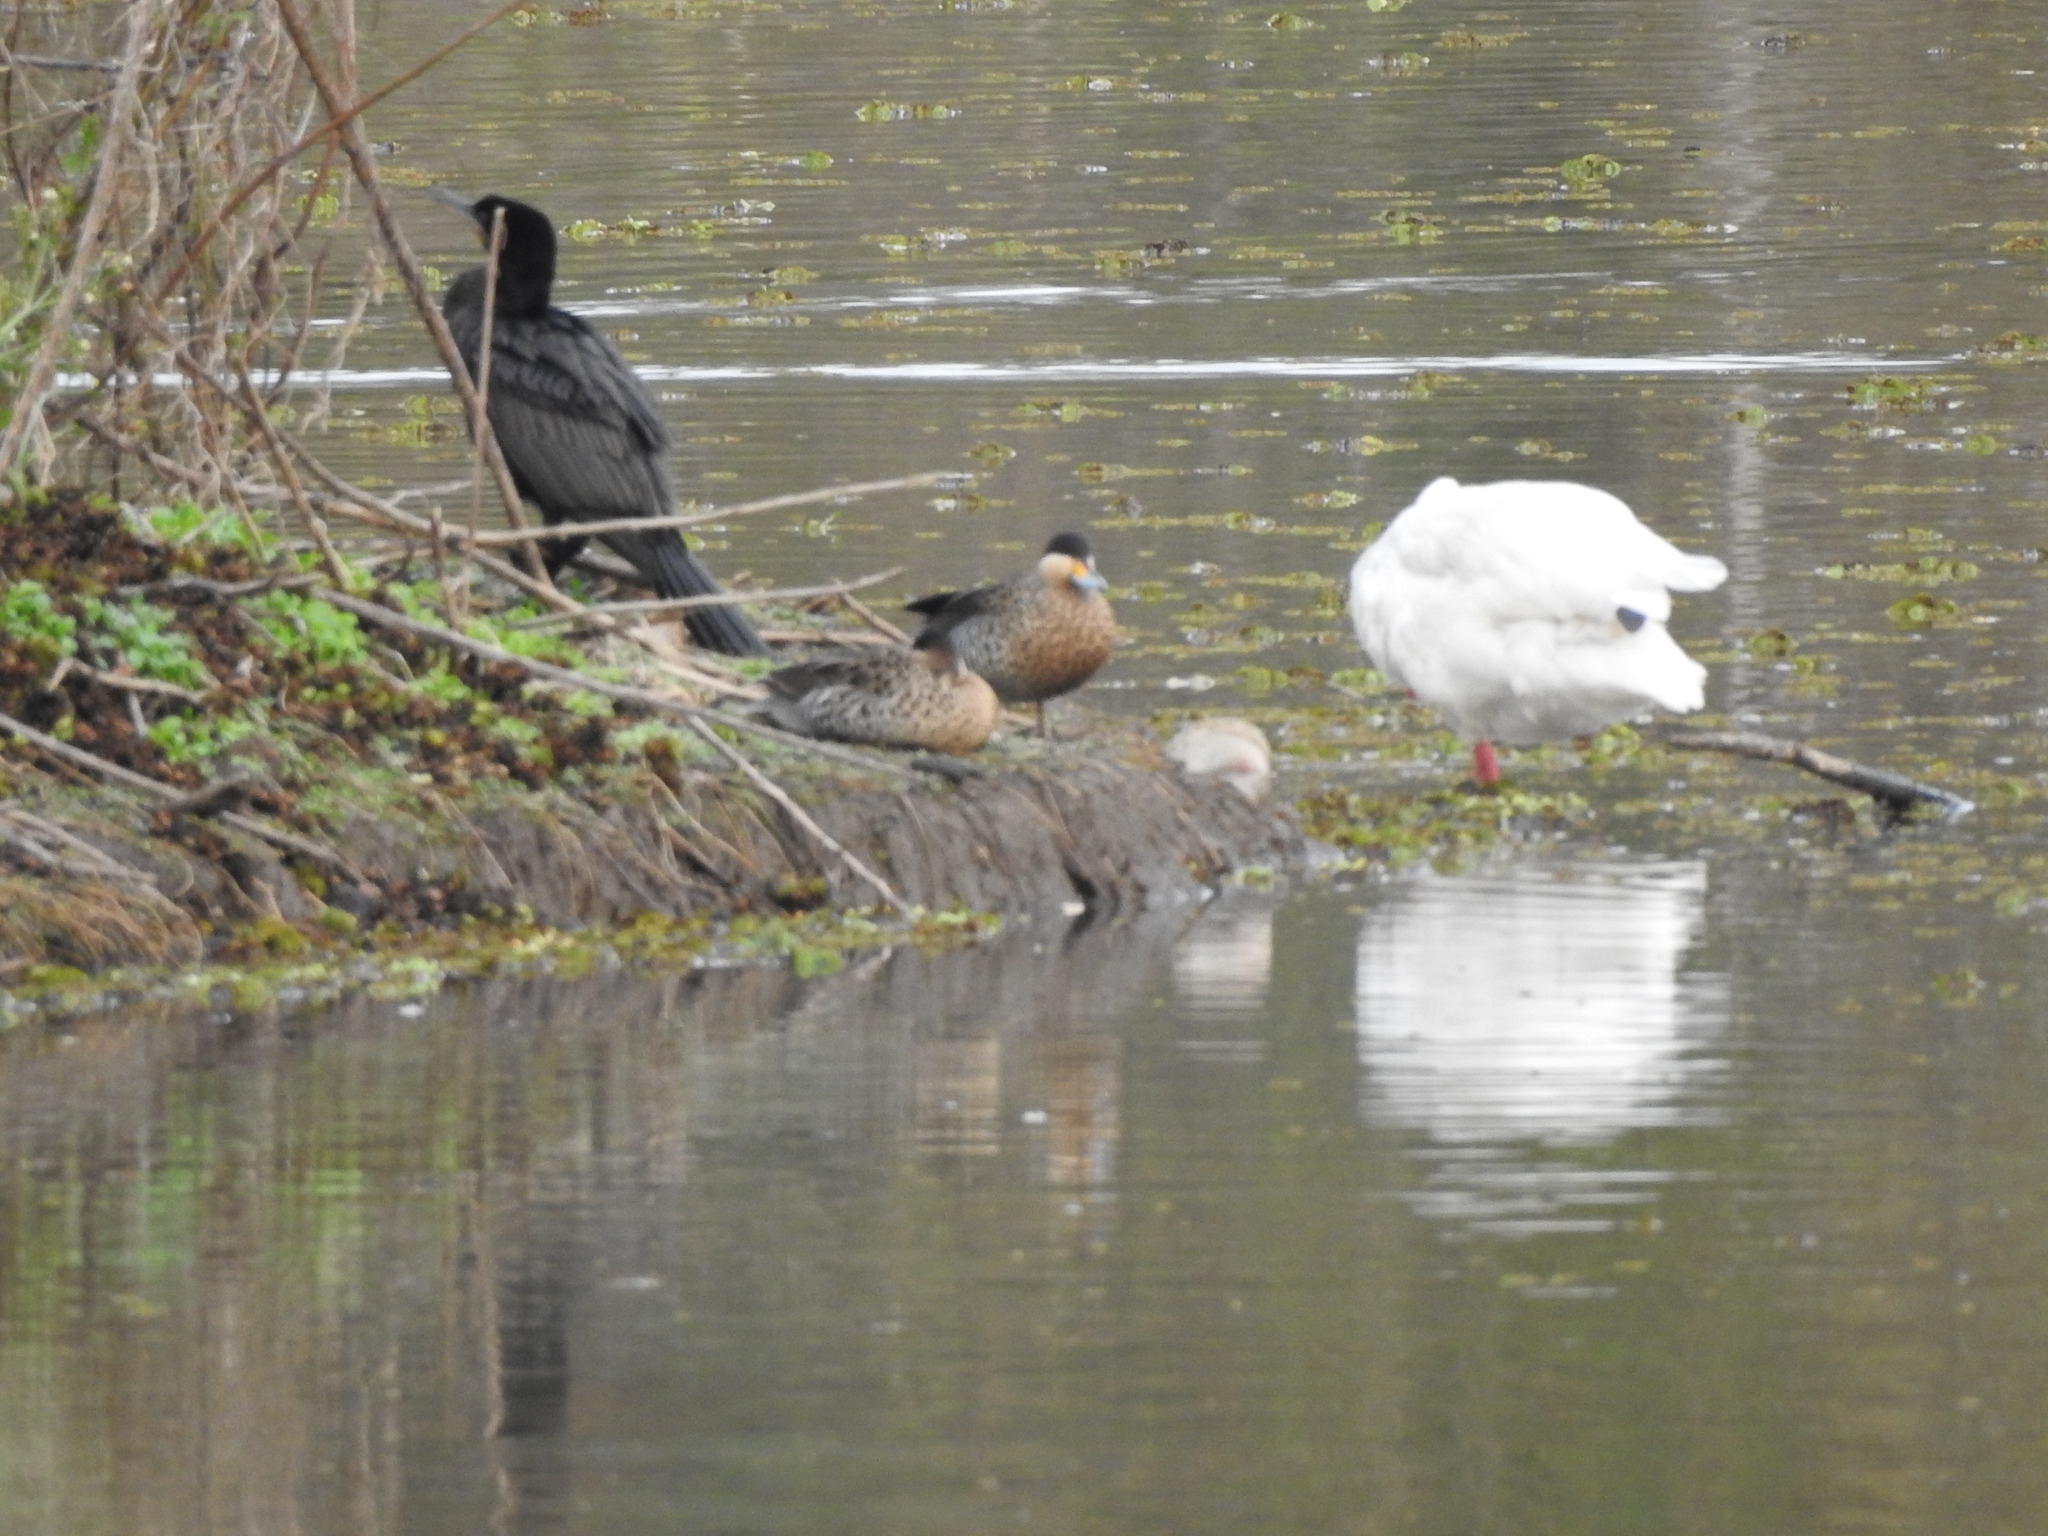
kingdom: Animalia
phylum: Chordata
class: Aves
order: Anseriformes
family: Anatidae
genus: Spatula
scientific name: Spatula versicolor
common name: Silver teal
